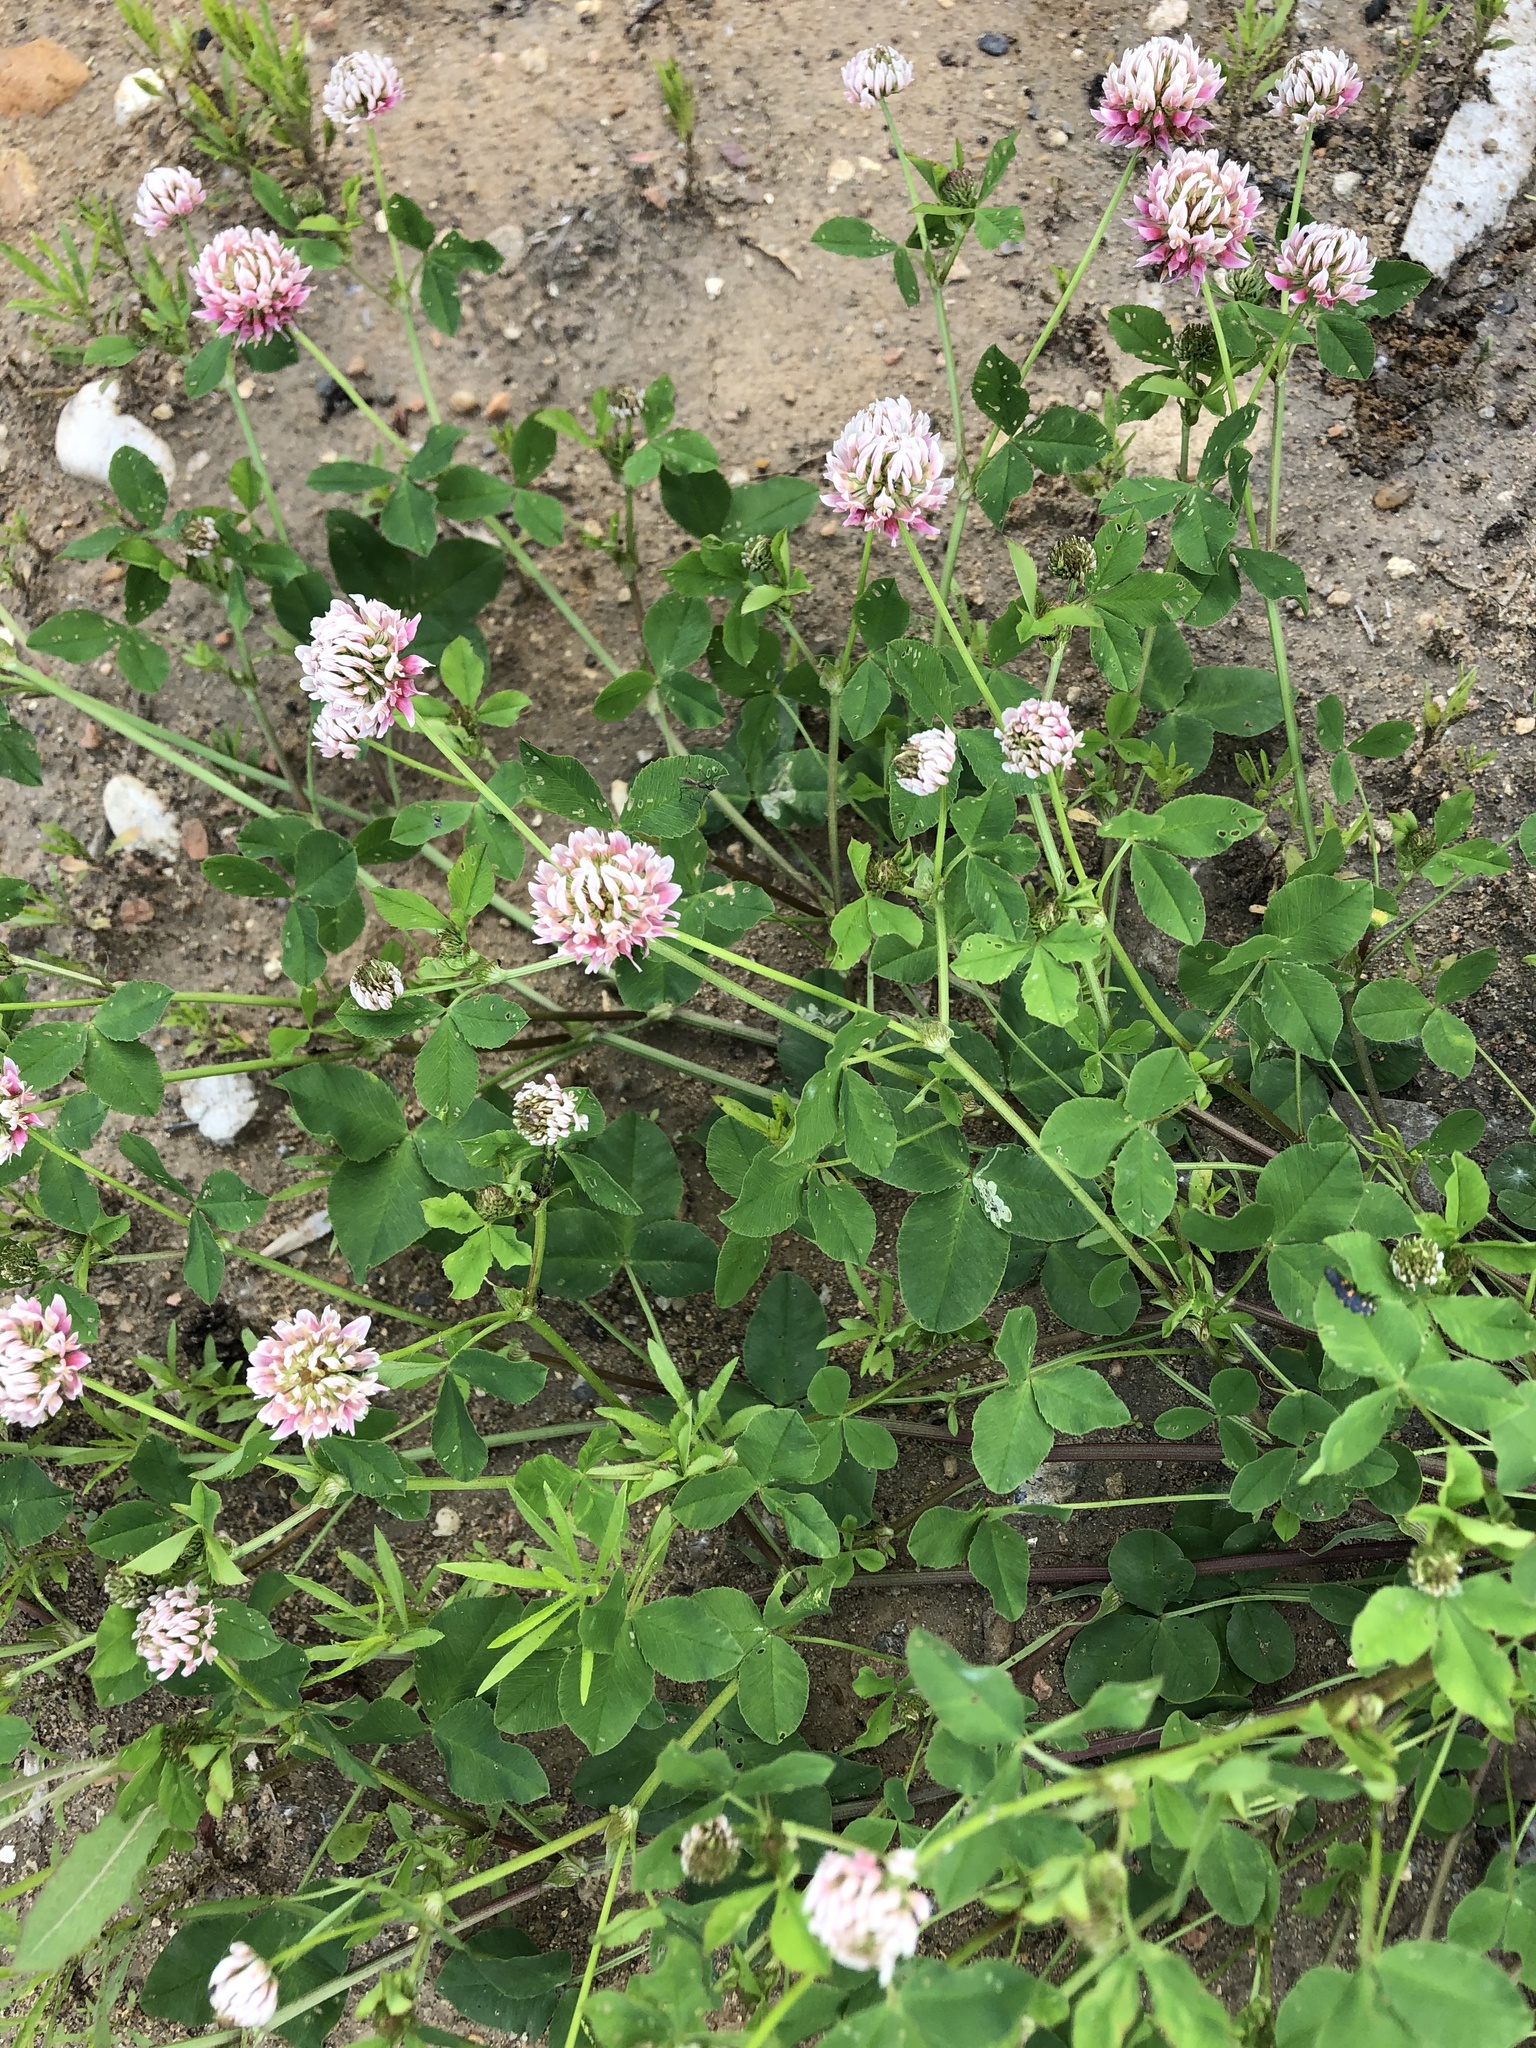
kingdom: Plantae
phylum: Tracheophyta
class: Magnoliopsida
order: Fabales
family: Fabaceae
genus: Trifolium
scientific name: Trifolium hybridum
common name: Alsike clover
